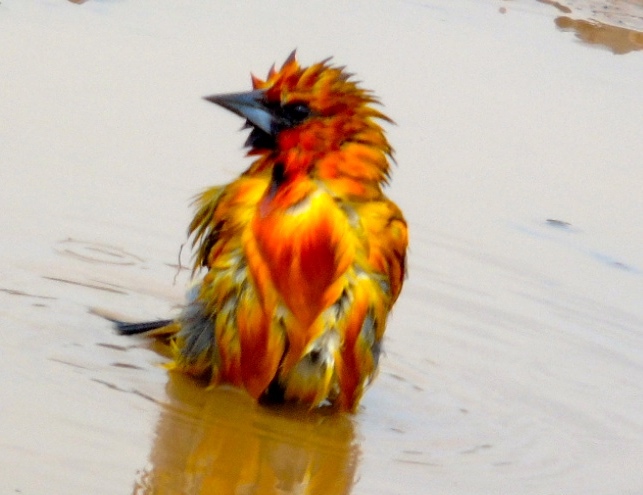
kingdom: Animalia
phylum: Chordata
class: Aves
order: Passeriformes
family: Icteridae
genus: Icterus
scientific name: Icterus pustulatus
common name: Streak-backed oriole
